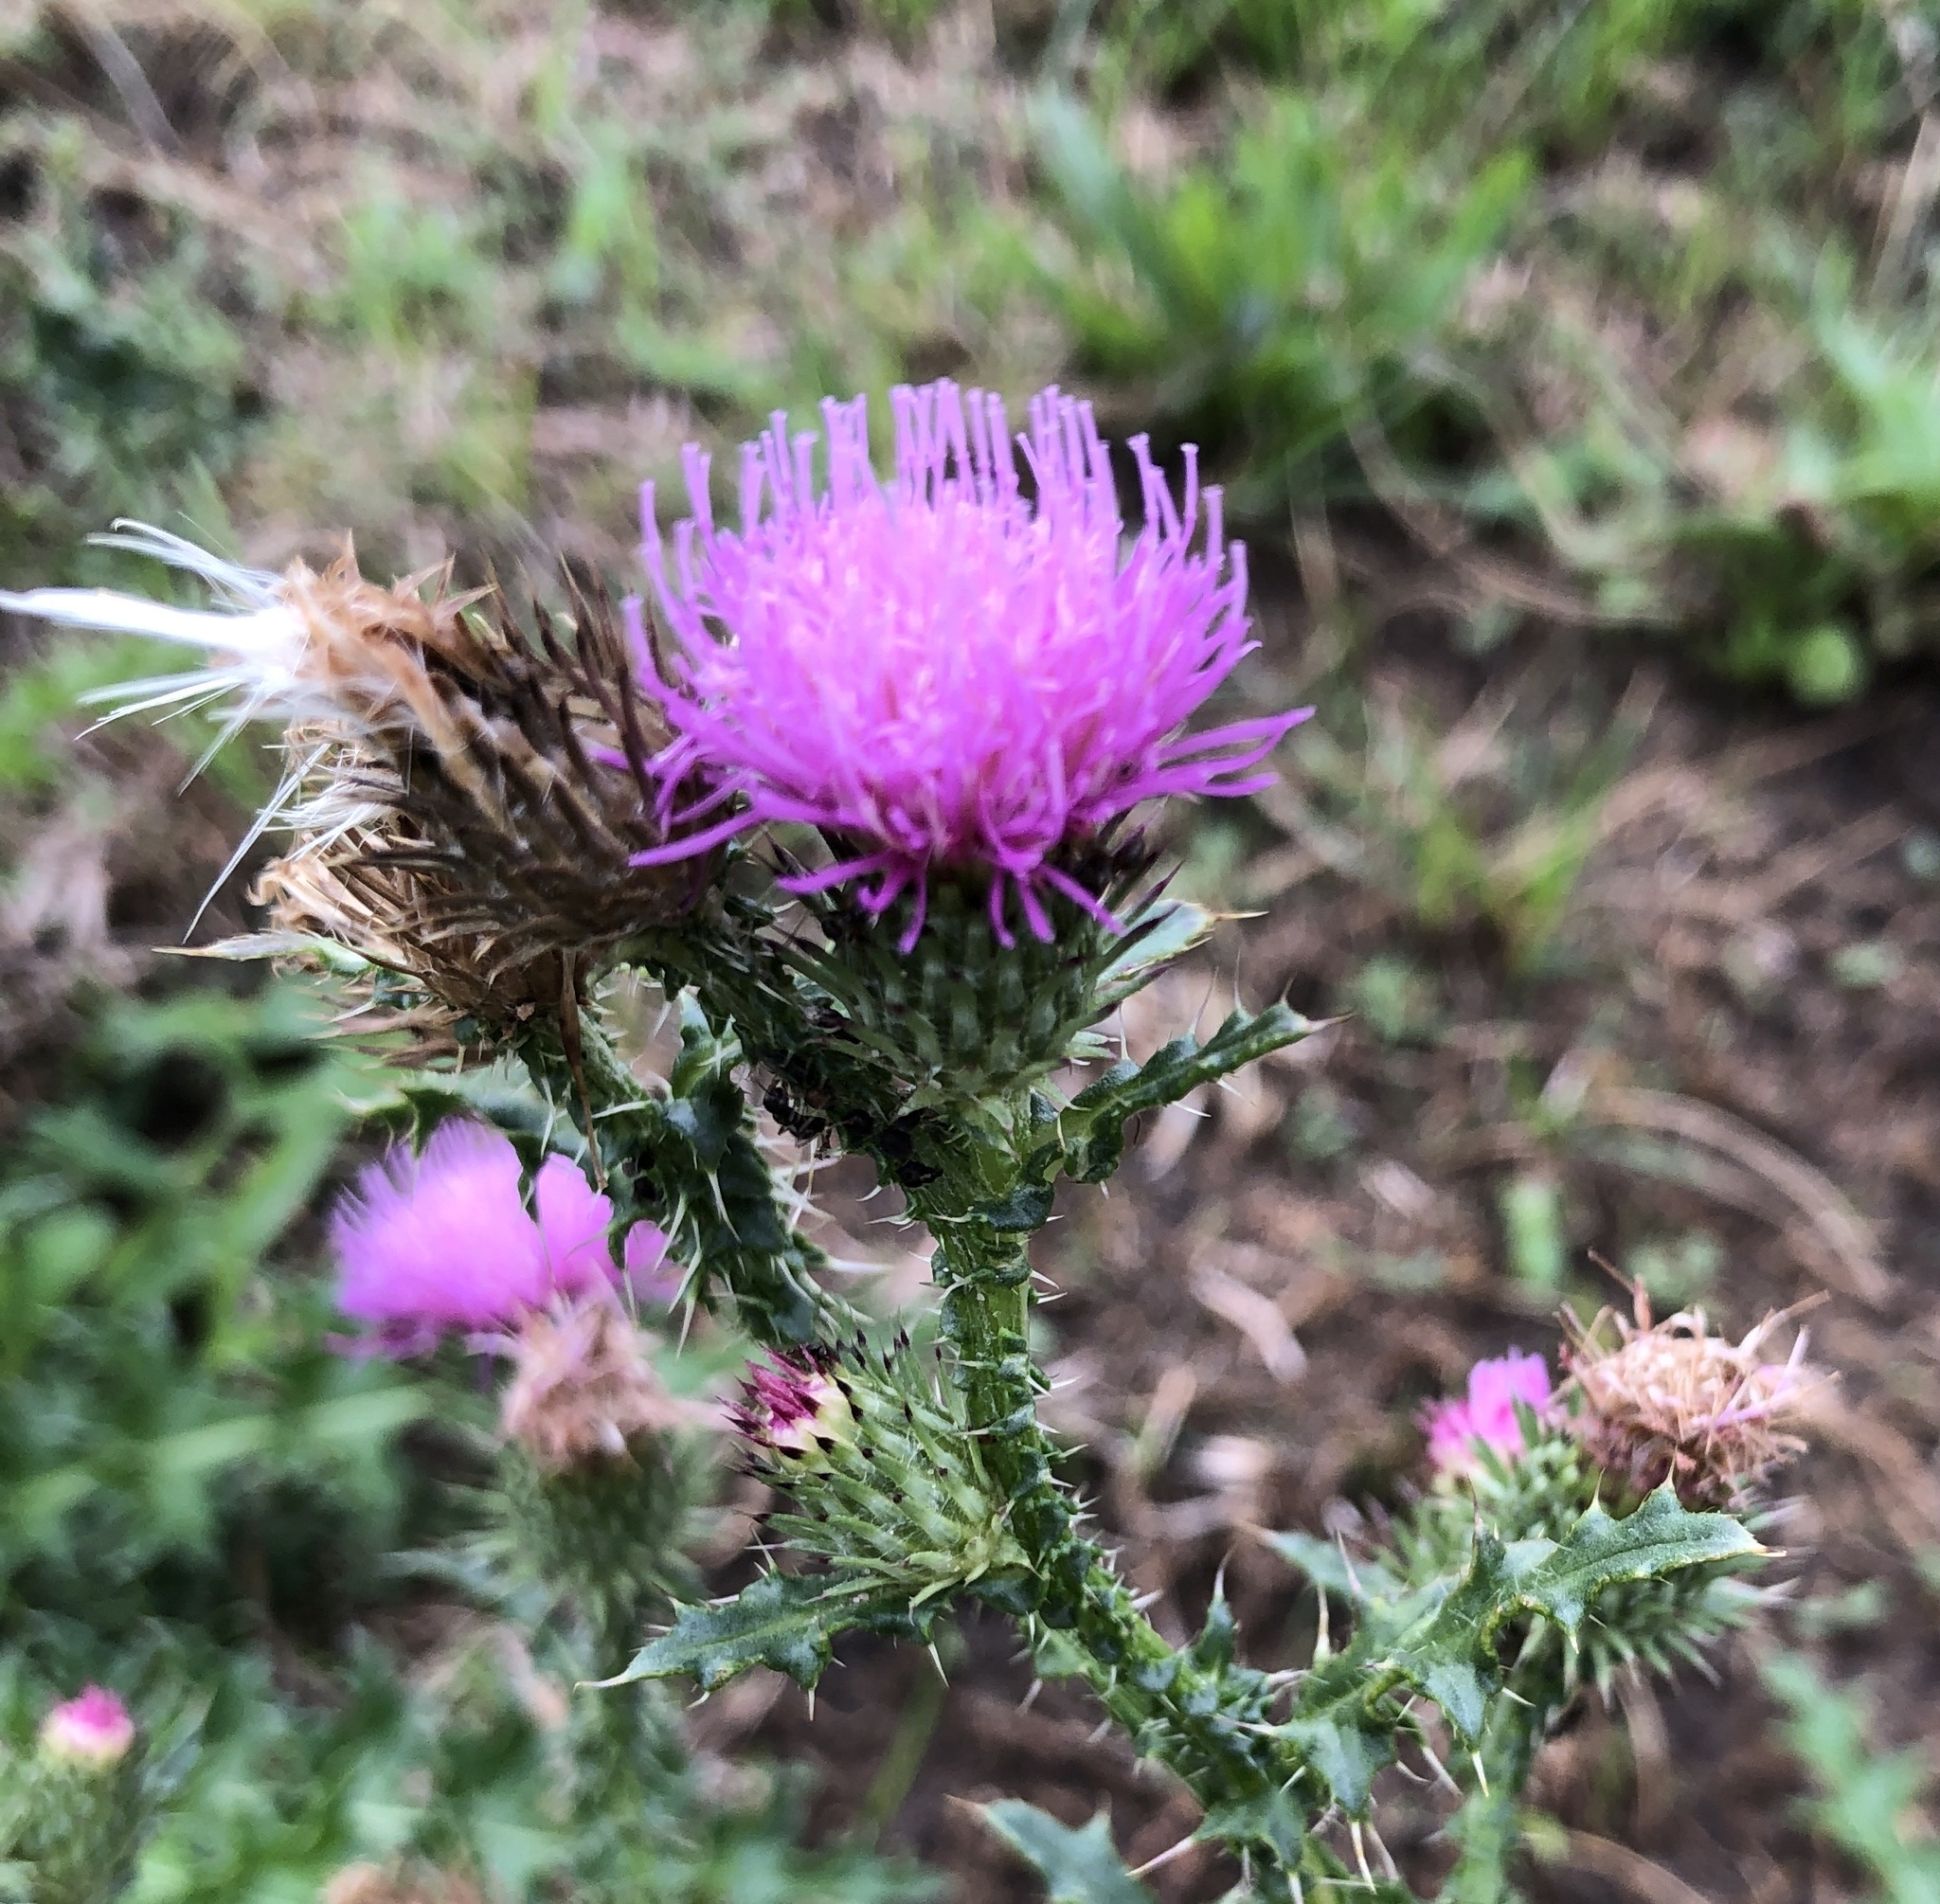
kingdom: Plantae
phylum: Tracheophyta
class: Magnoliopsida
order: Asterales
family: Asteraceae
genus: Carduus
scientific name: Carduus acanthoides
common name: Plumeless thistle
